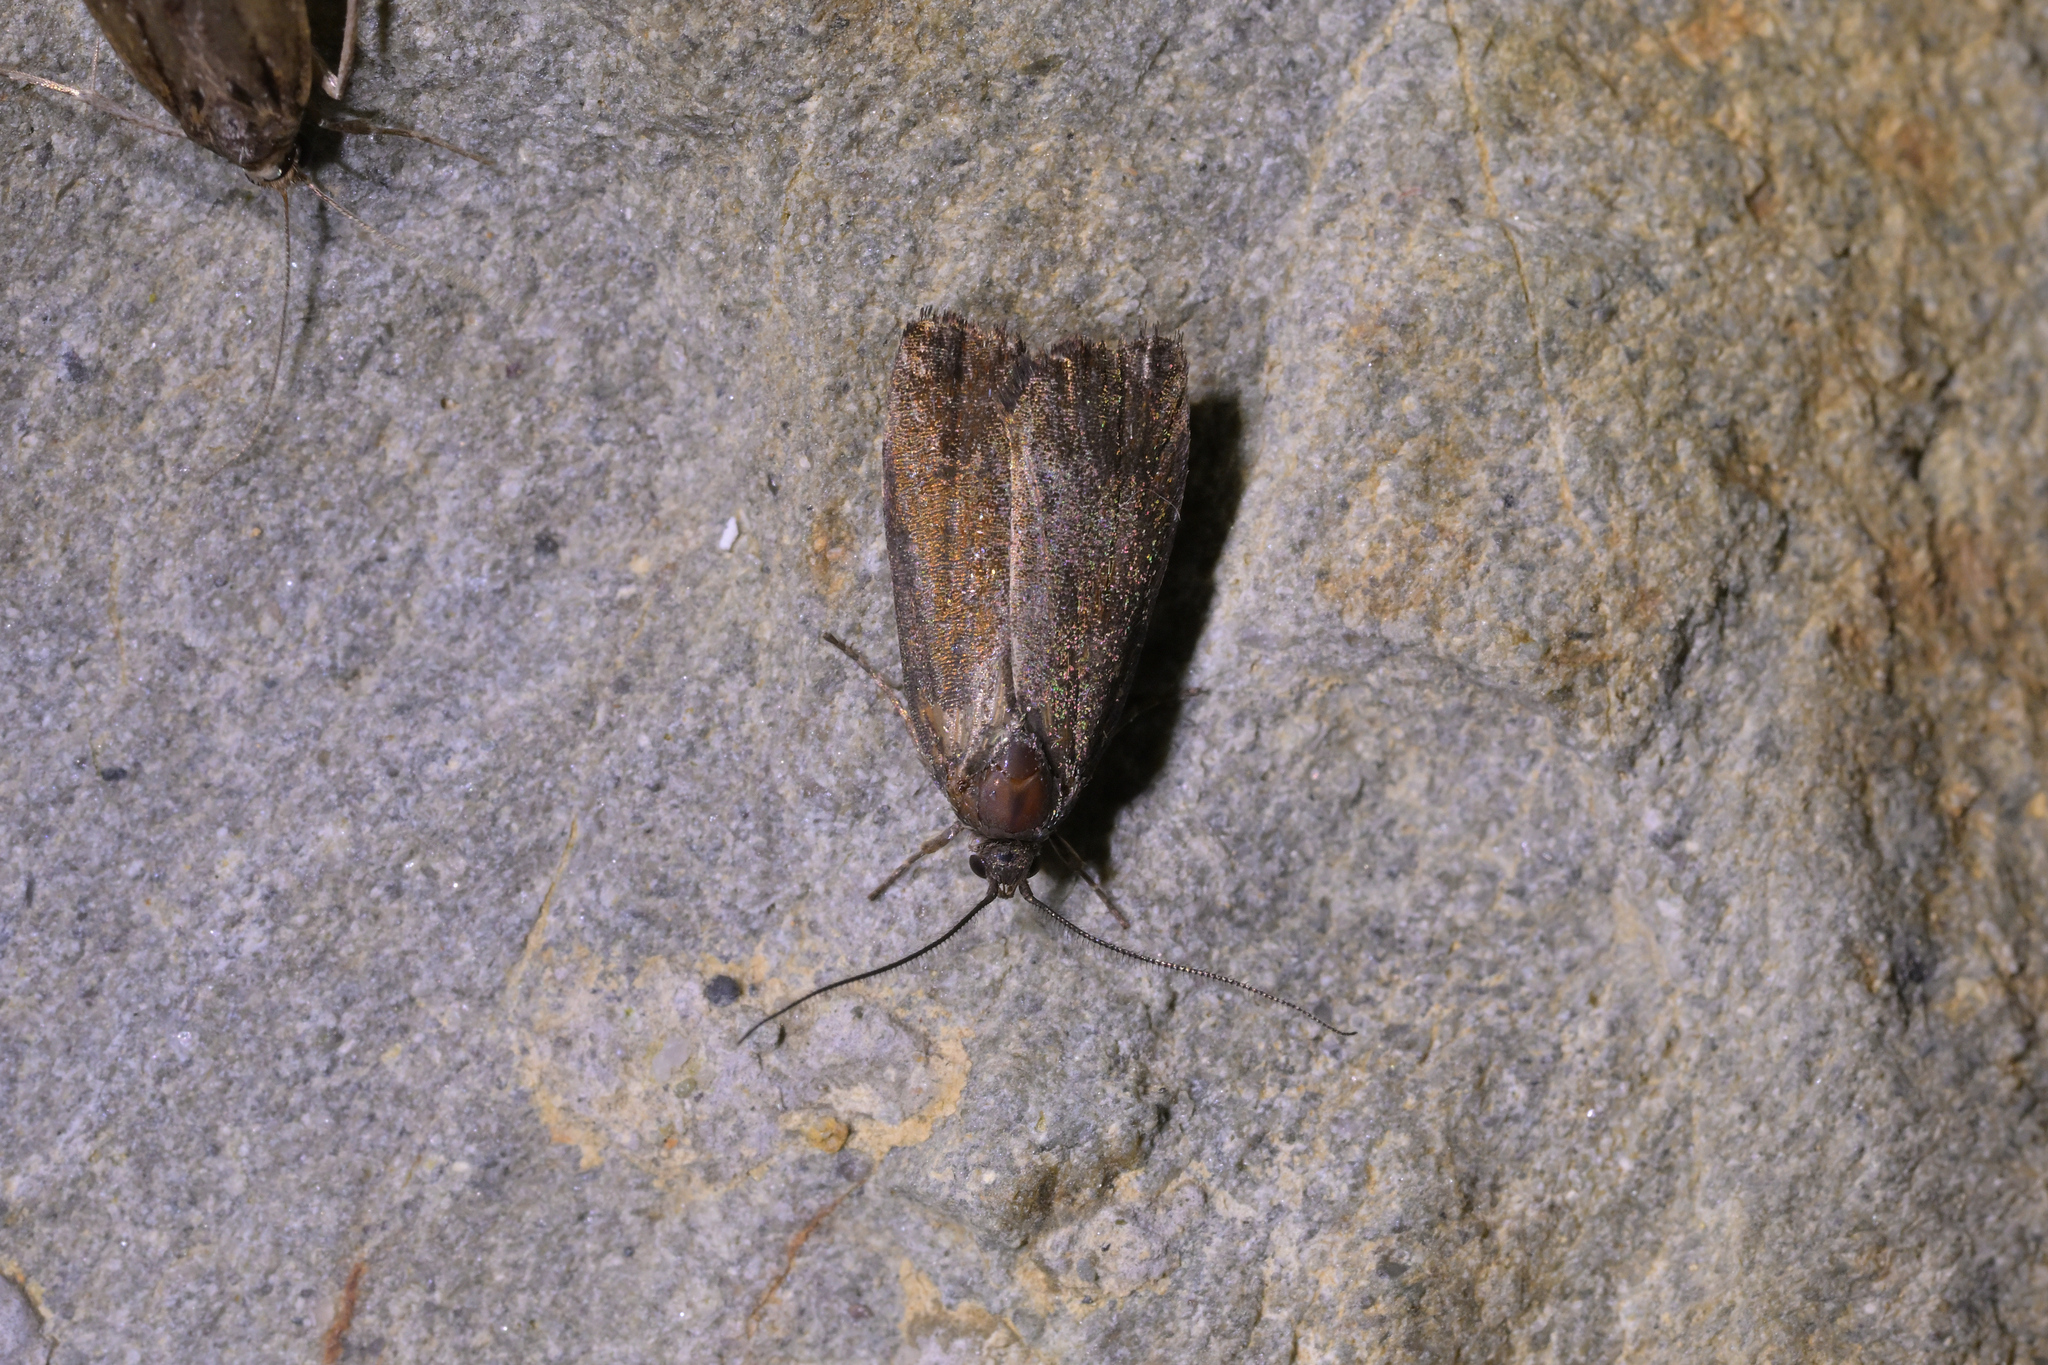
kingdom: Animalia
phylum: Arthropoda
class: Insecta
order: Lepidoptera
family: Oecophoridae
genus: Hierodoris
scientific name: Hierodoris
